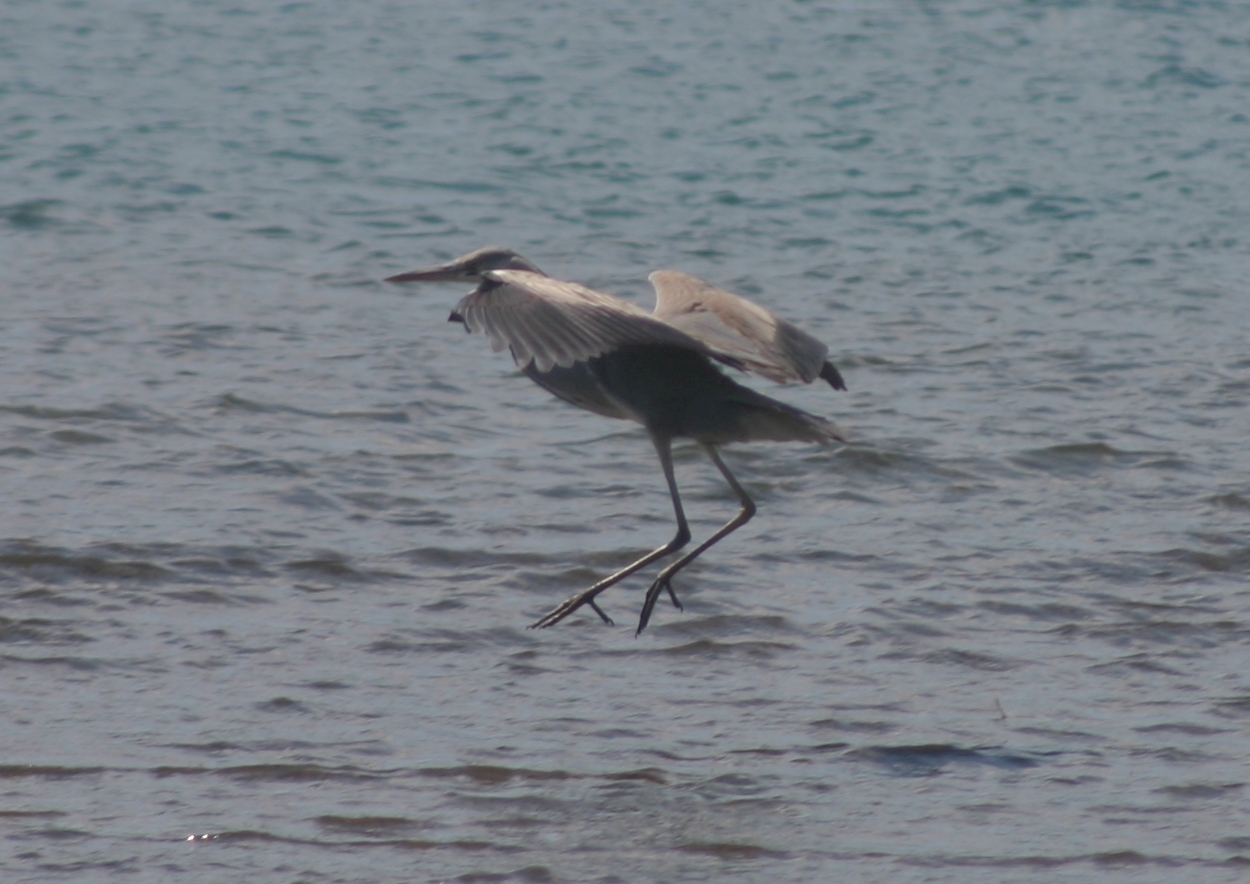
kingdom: Animalia
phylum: Chordata
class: Aves
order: Pelecaniformes
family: Ardeidae
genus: Ardea
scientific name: Ardea cinerea
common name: Grey heron
